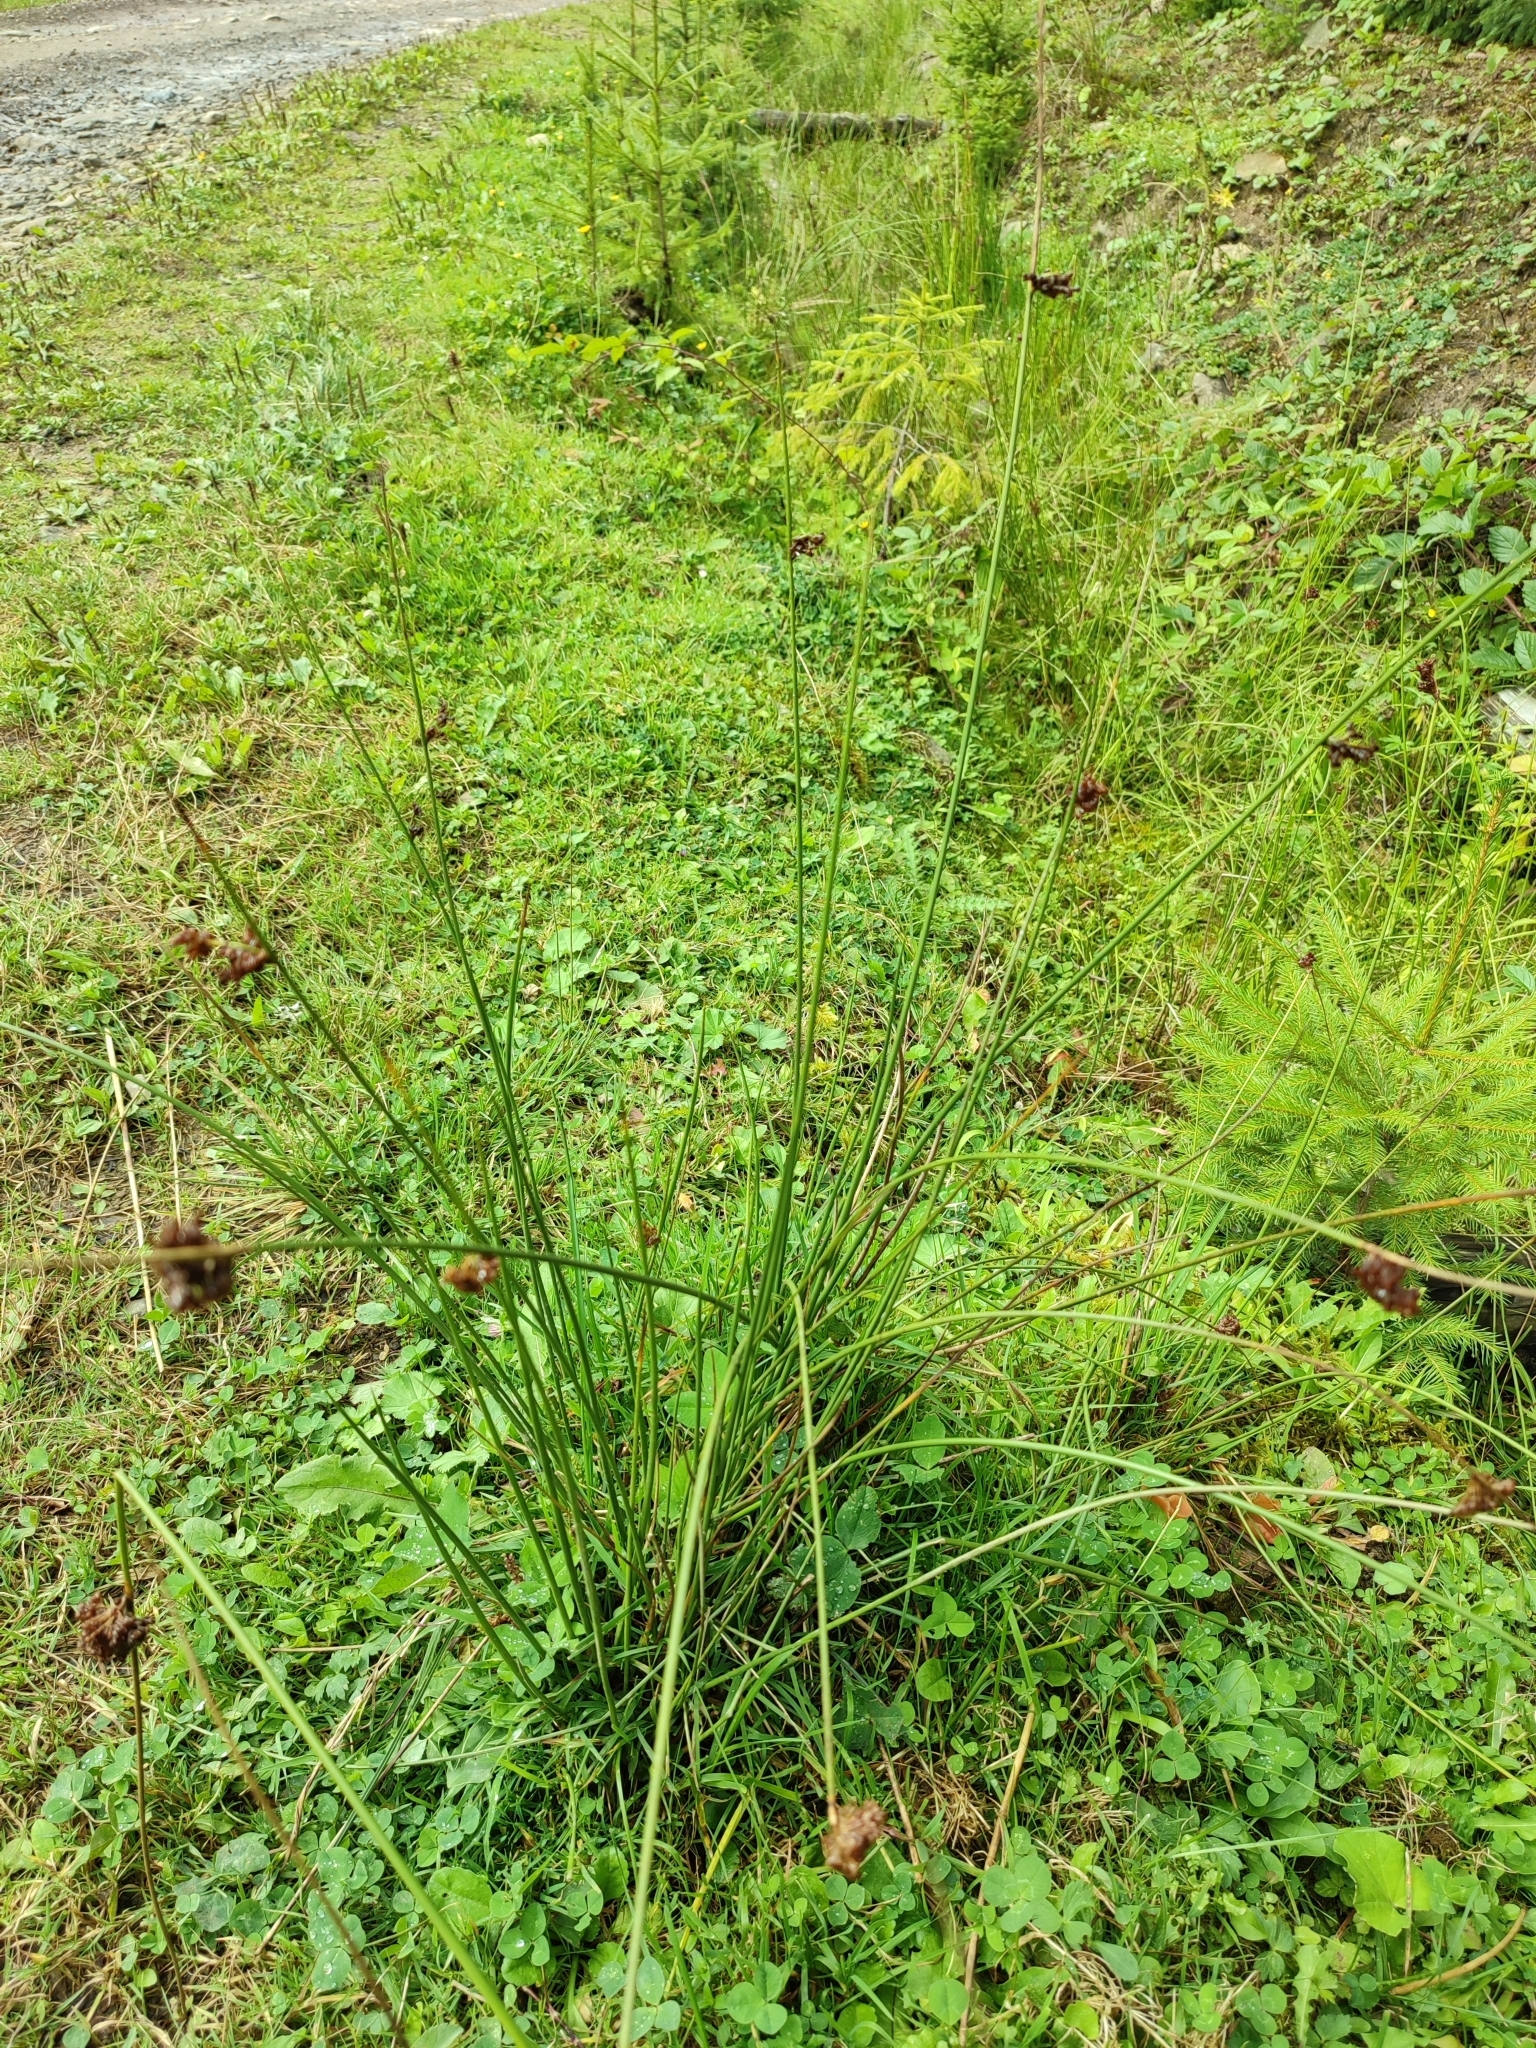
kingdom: Plantae
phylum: Tracheophyta
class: Liliopsida
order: Poales
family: Juncaceae
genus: Juncus
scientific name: Juncus effusus
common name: Soft rush
